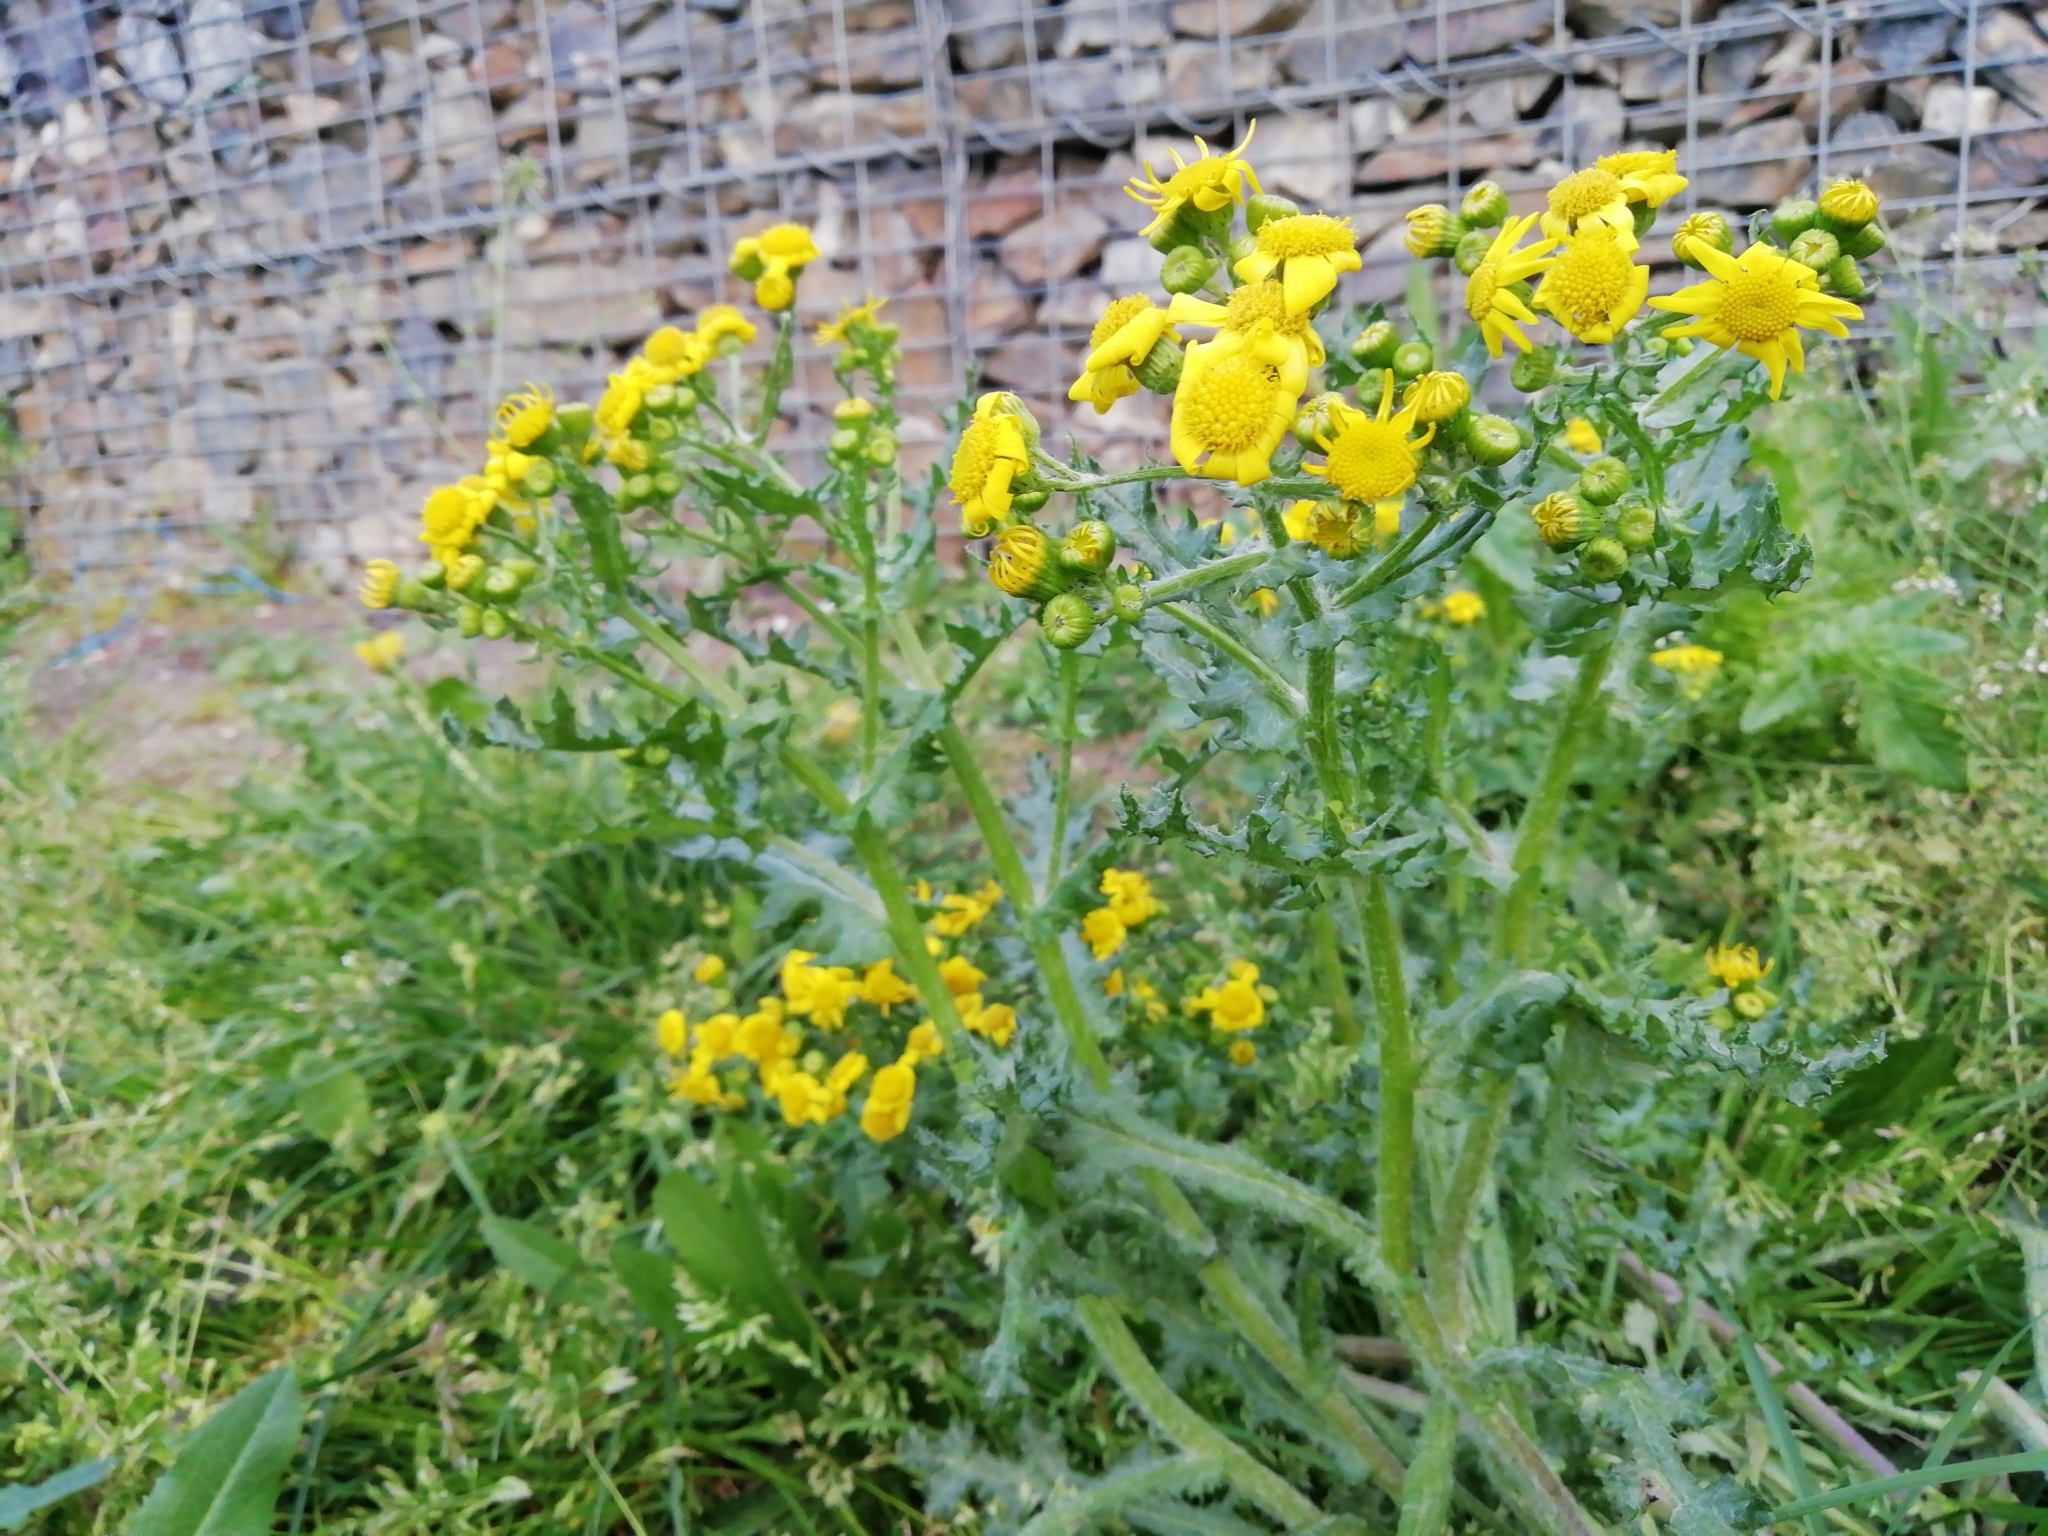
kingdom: Plantae
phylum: Tracheophyta
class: Magnoliopsida
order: Asterales
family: Asteraceae
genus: Senecio
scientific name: Senecio vernalis
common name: Eastern groundsel
